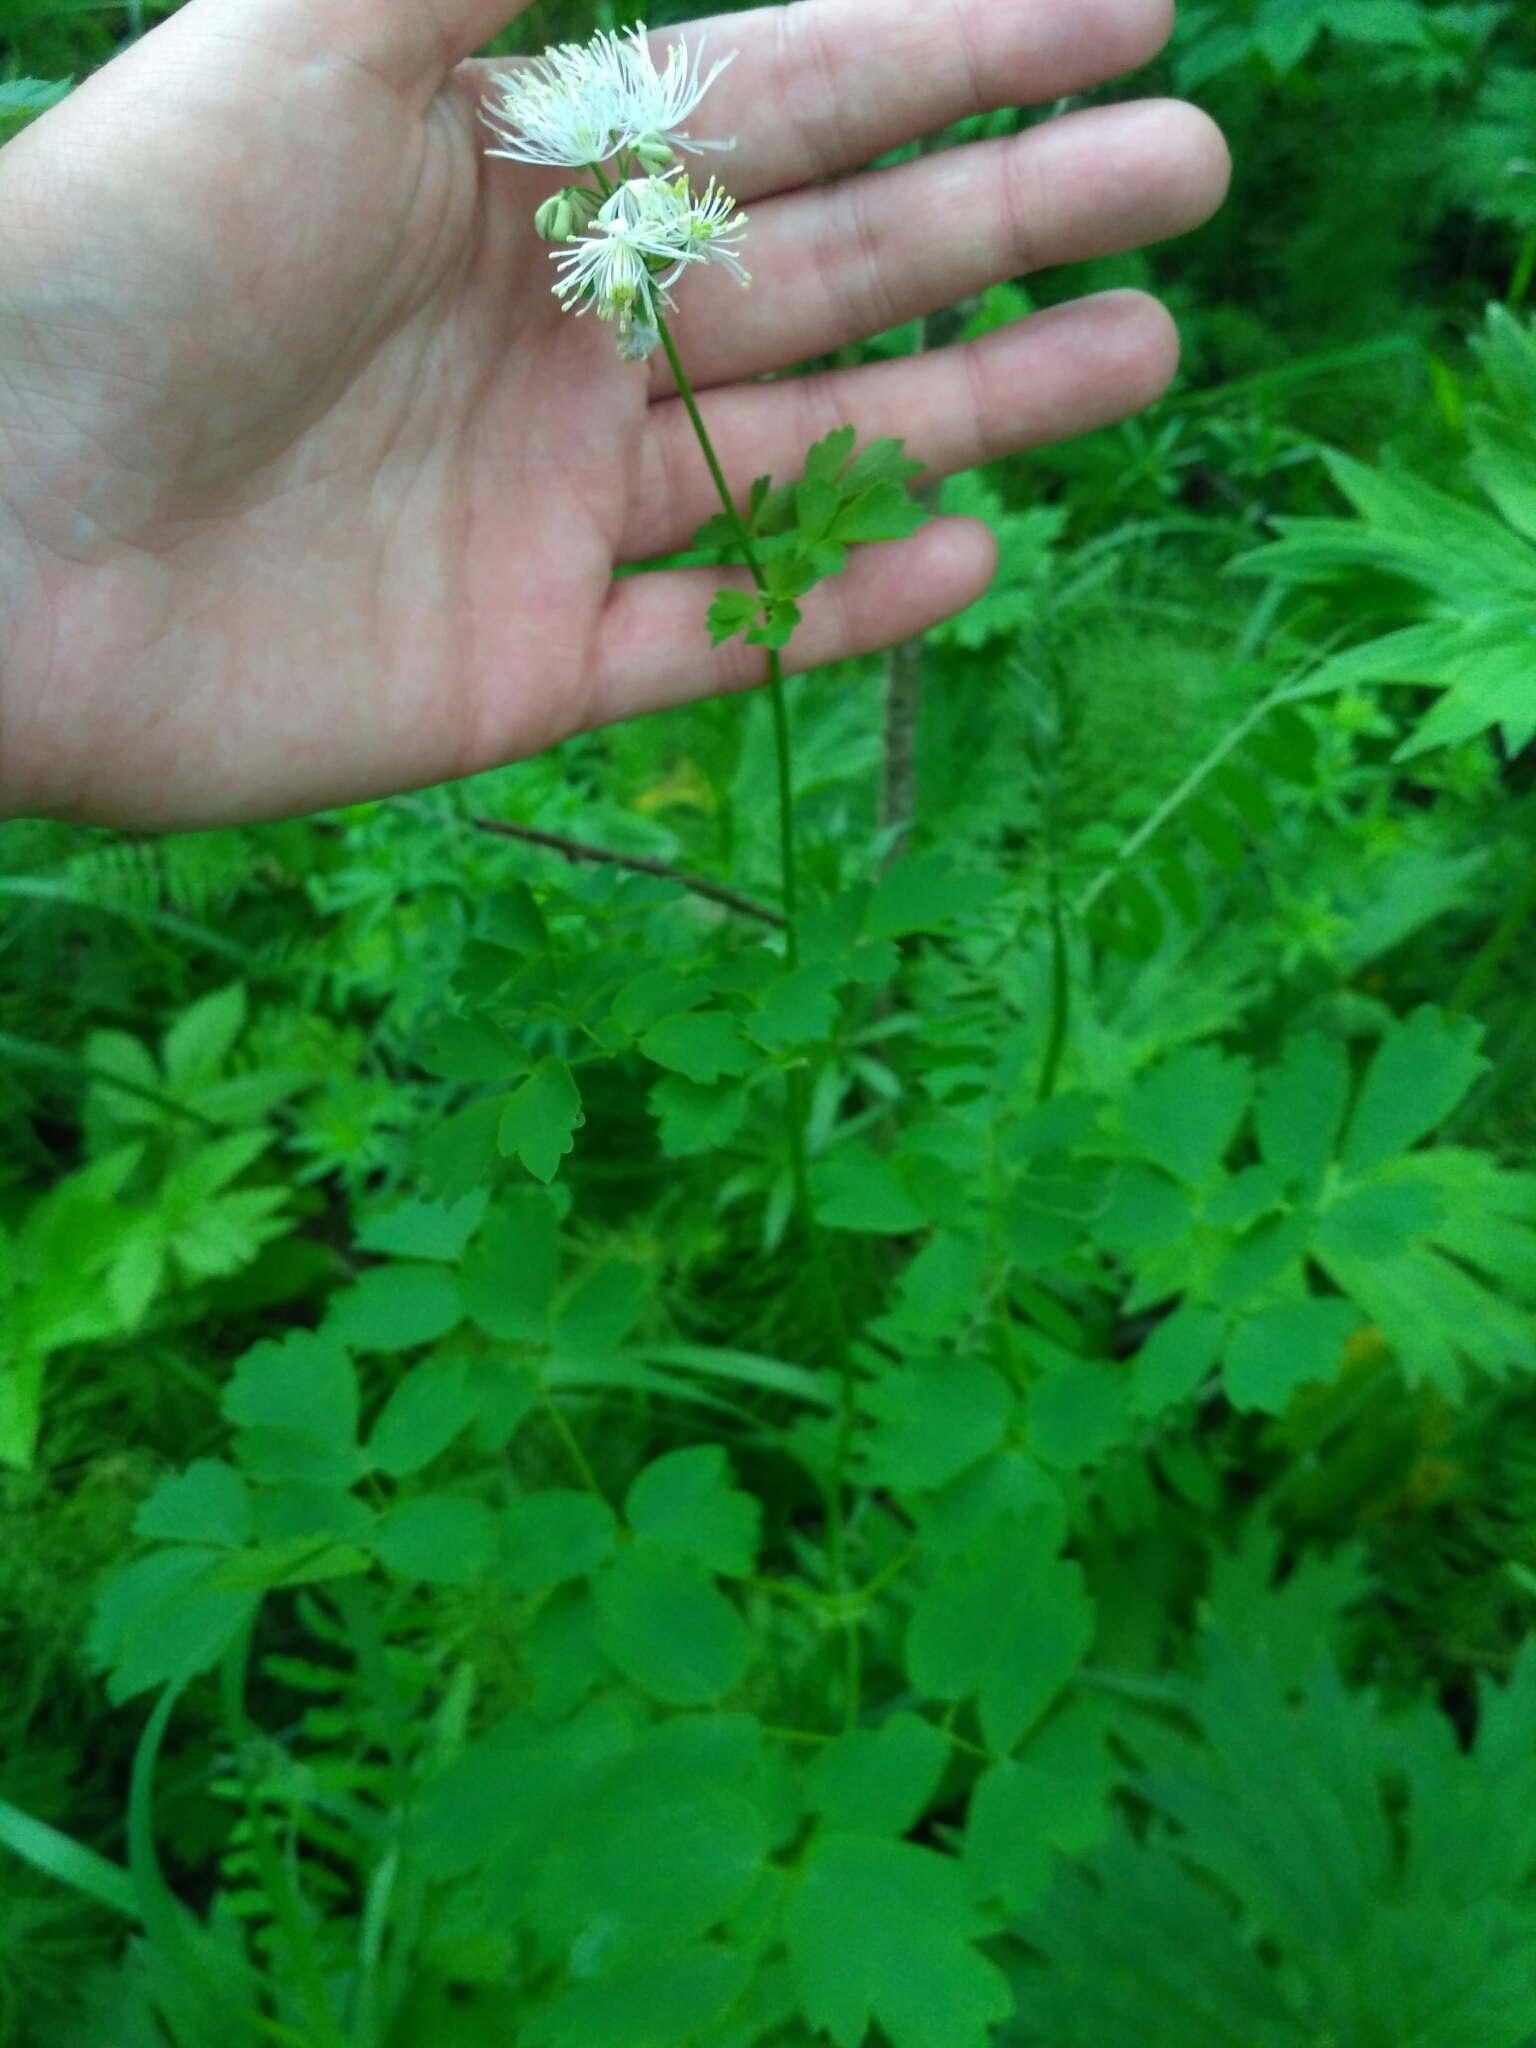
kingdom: Plantae
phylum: Tracheophyta
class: Magnoliopsida
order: Ranunculales
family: Ranunculaceae
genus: Thalictrum
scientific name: Thalictrum aquilegiifolium
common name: French meadow-rue
